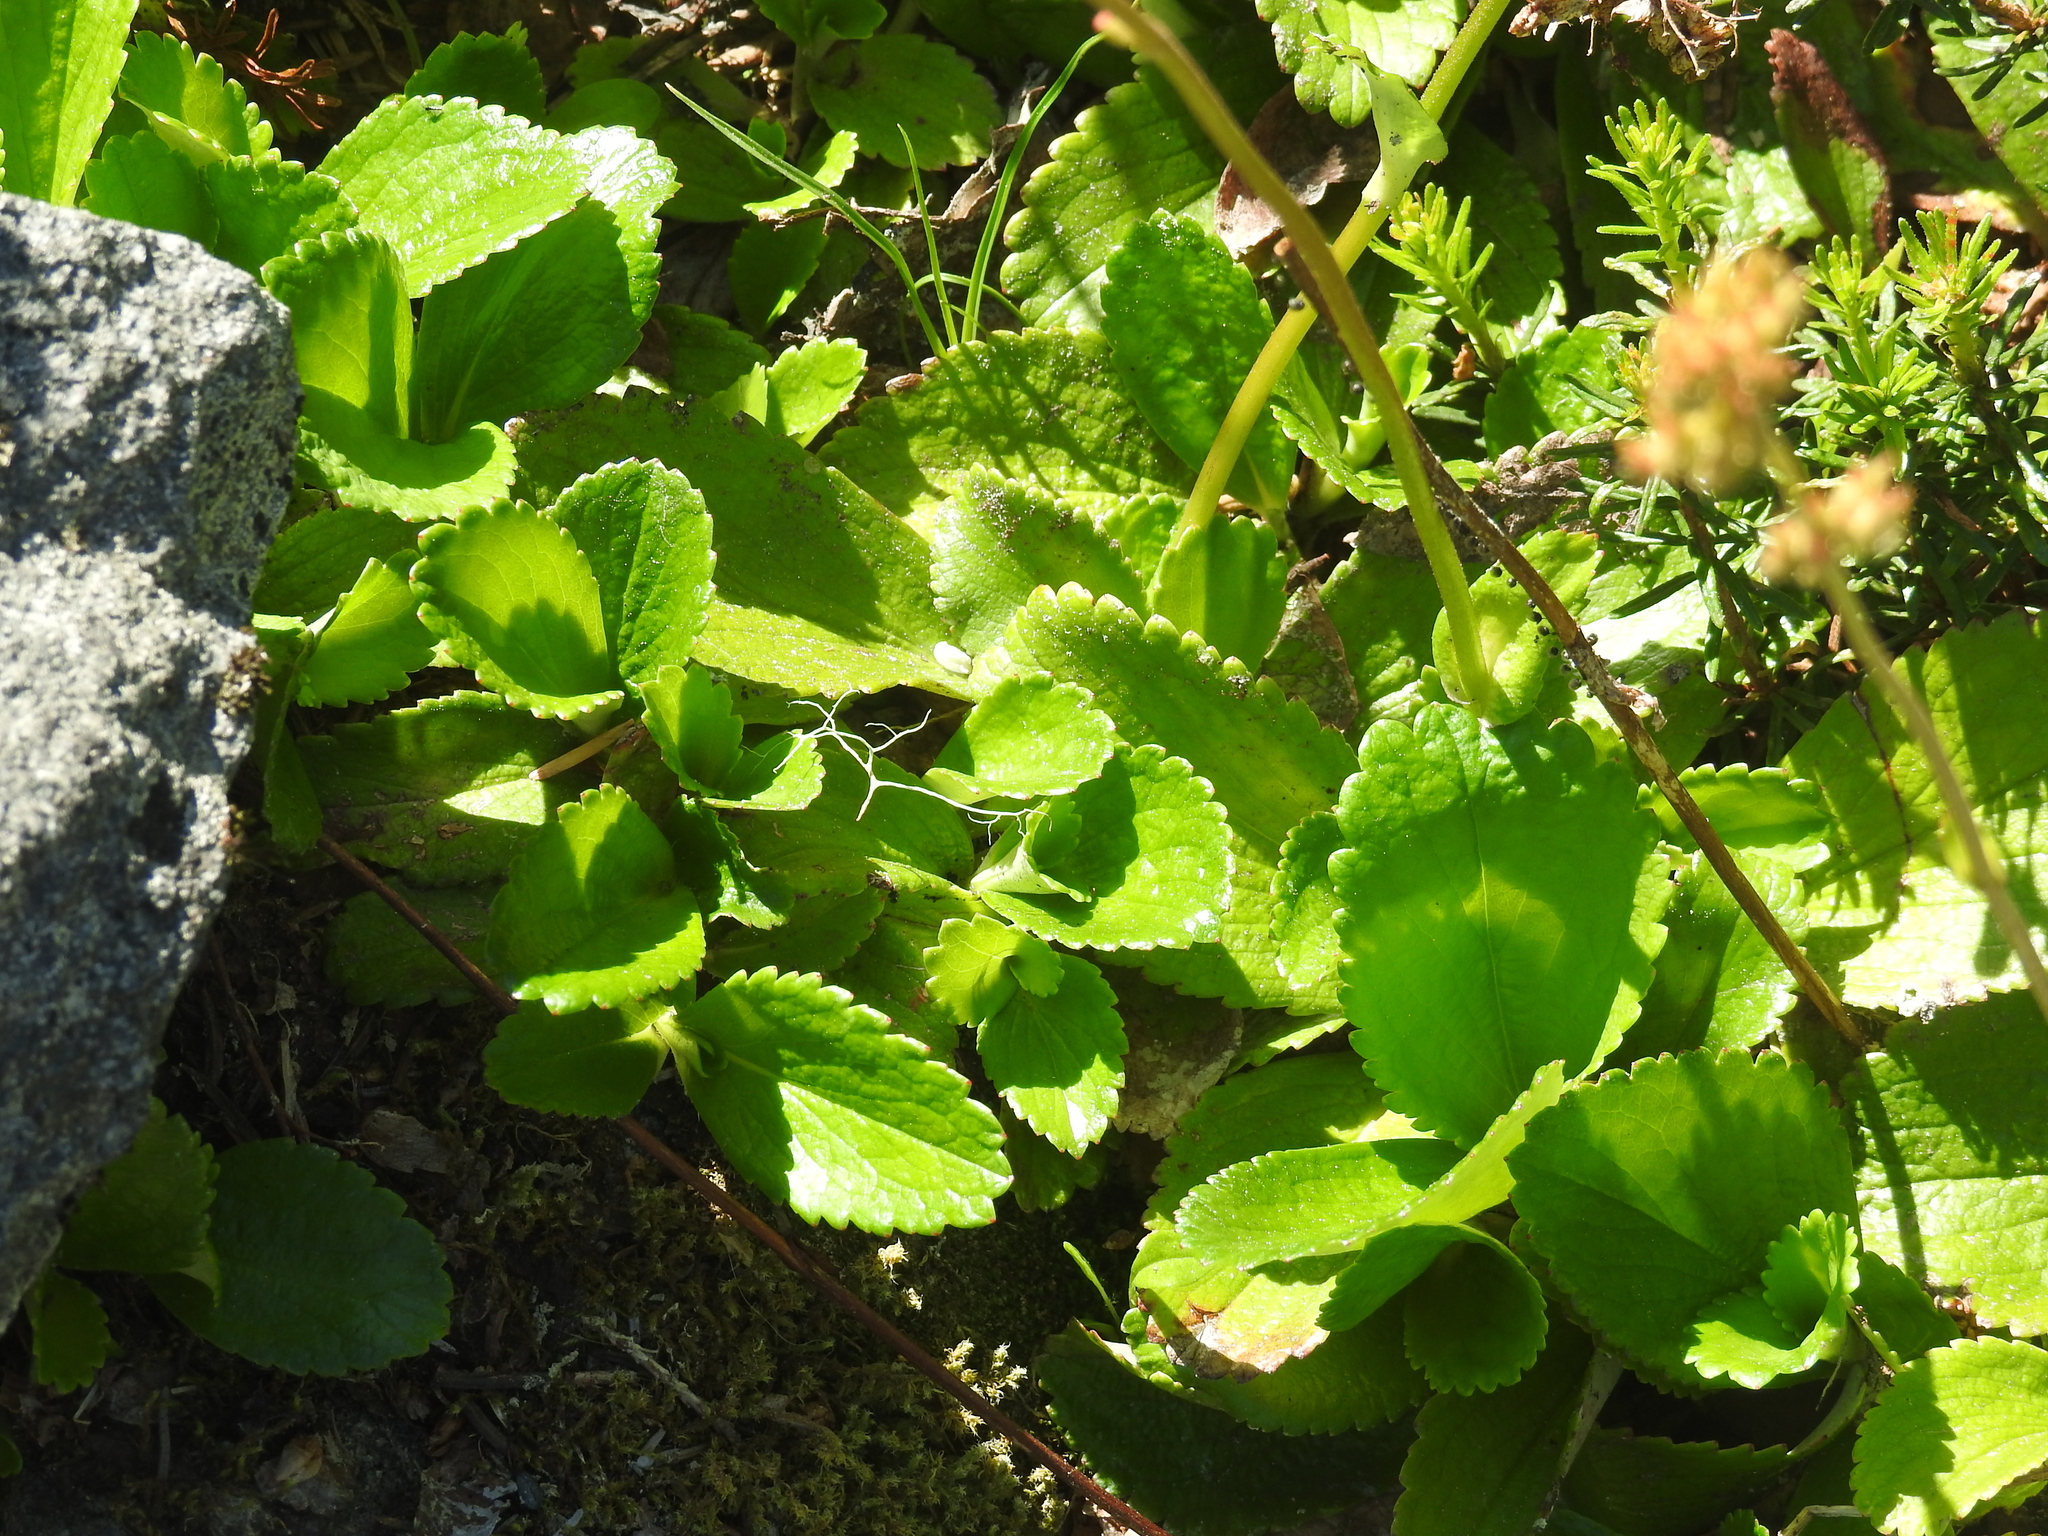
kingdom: Plantae
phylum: Tracheophyta
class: Magnoliopsida
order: Saxifragales
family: Saxifragaceae
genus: Leptarrhena
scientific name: Leptarrhena pyrolifolia
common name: Leatherleaf-saxifrage
